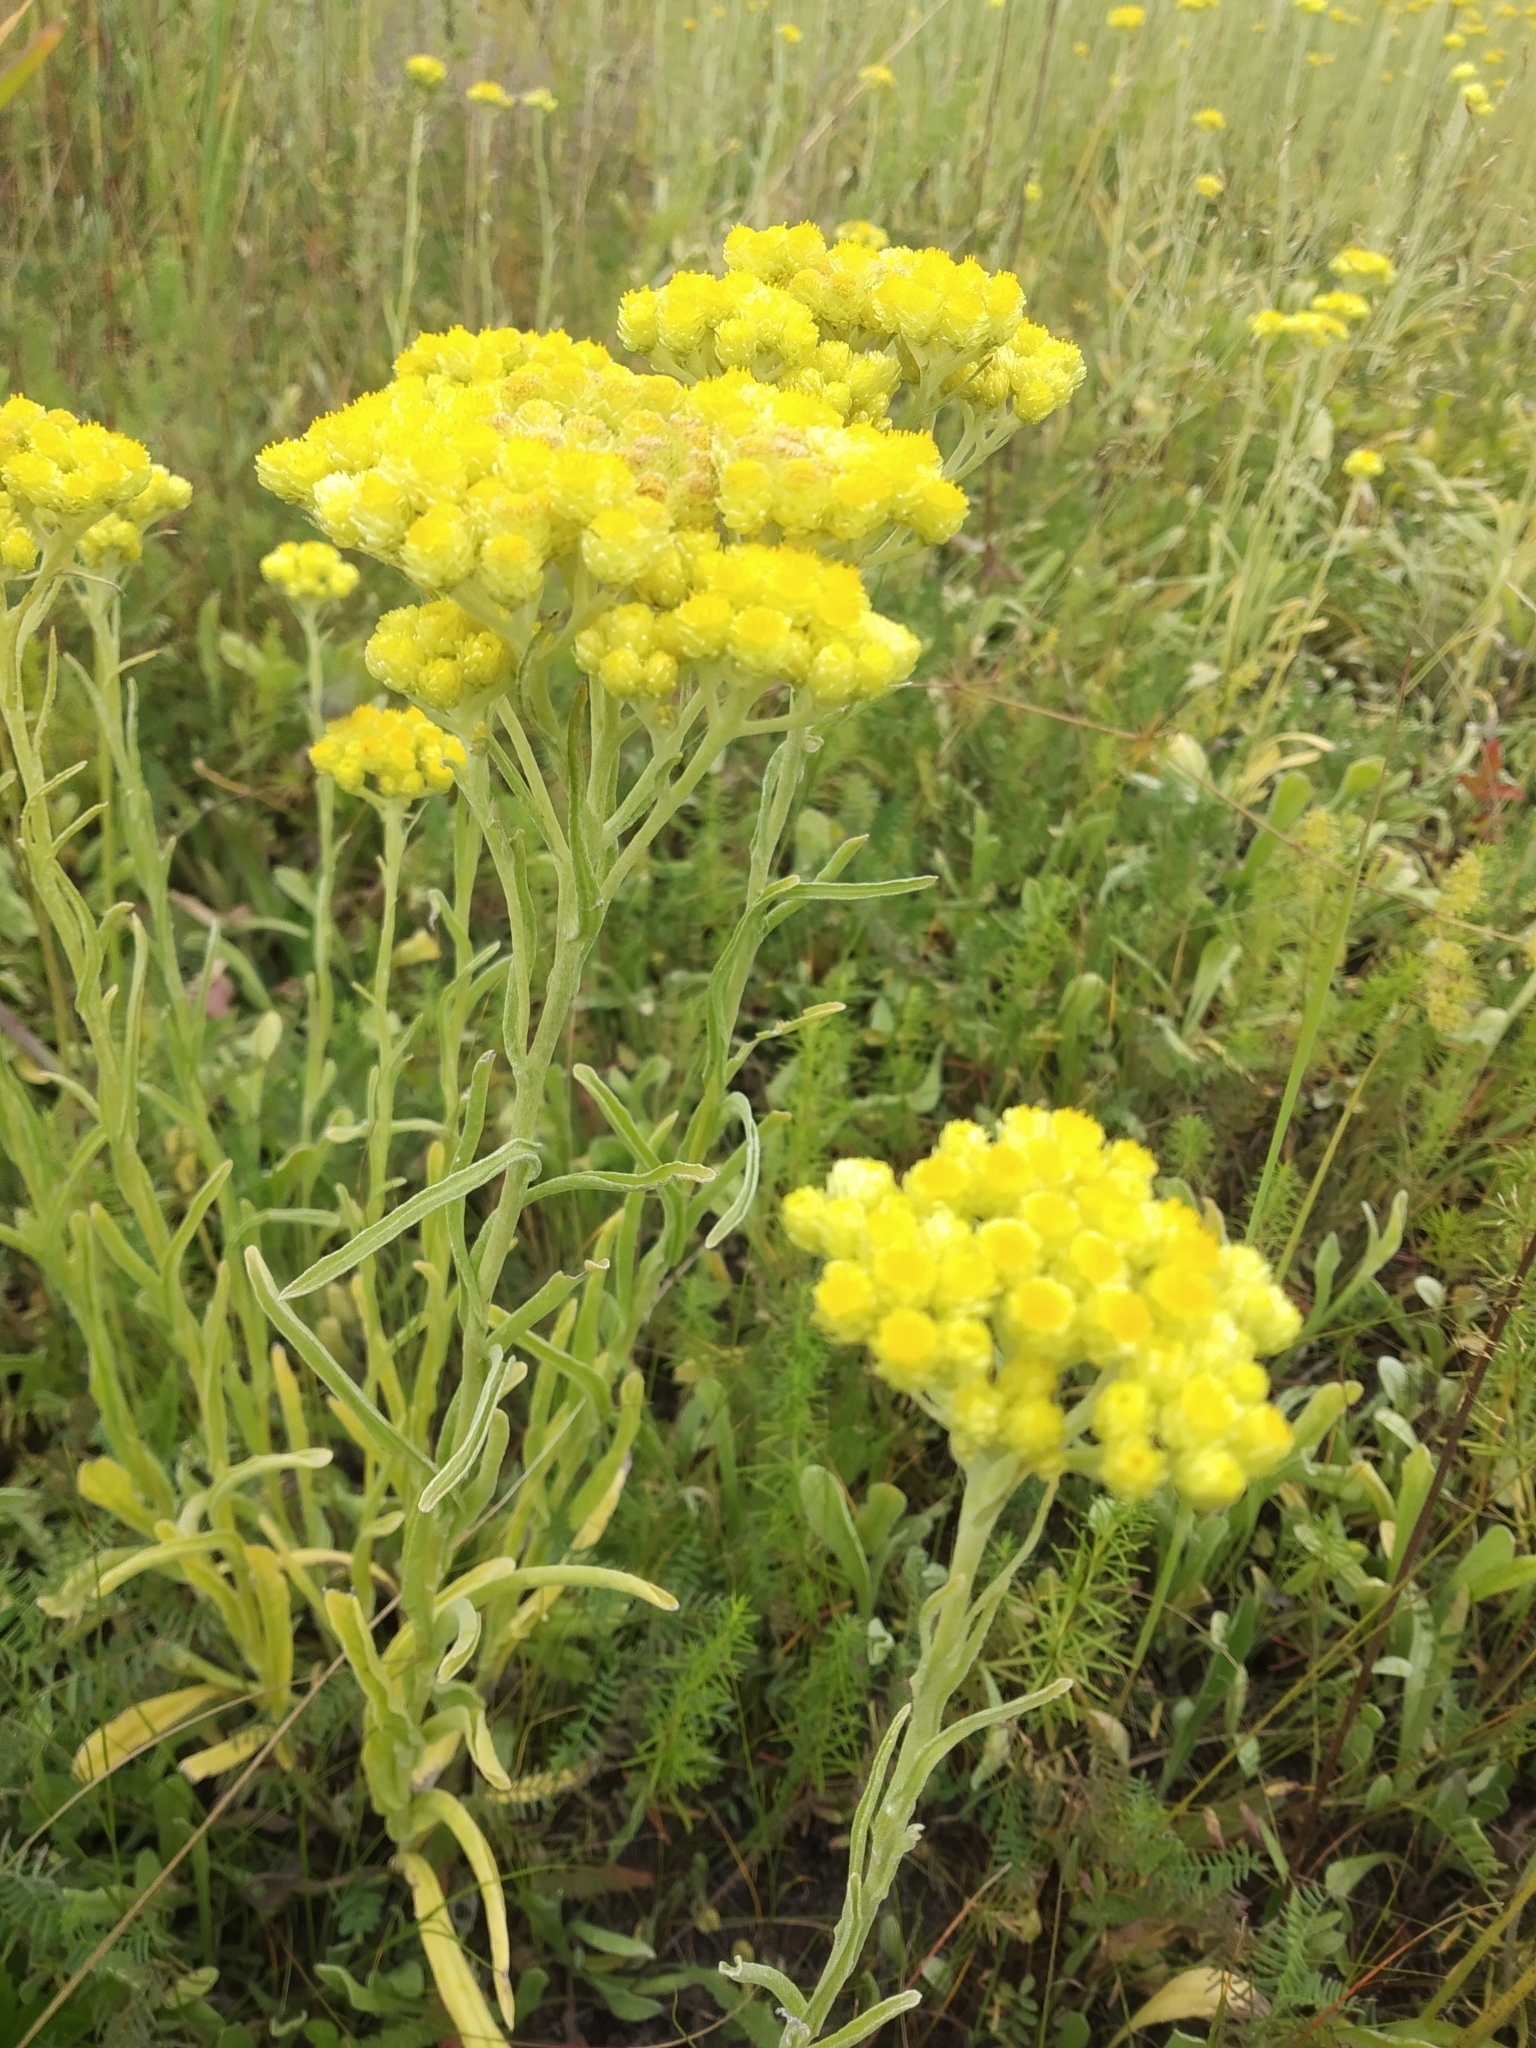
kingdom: Plantae
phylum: Tracheophyta
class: Magnoliopsida
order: Asterales
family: Asteraceae
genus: Helichrysum
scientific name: Helichrysum arenarium
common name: Strawflower
